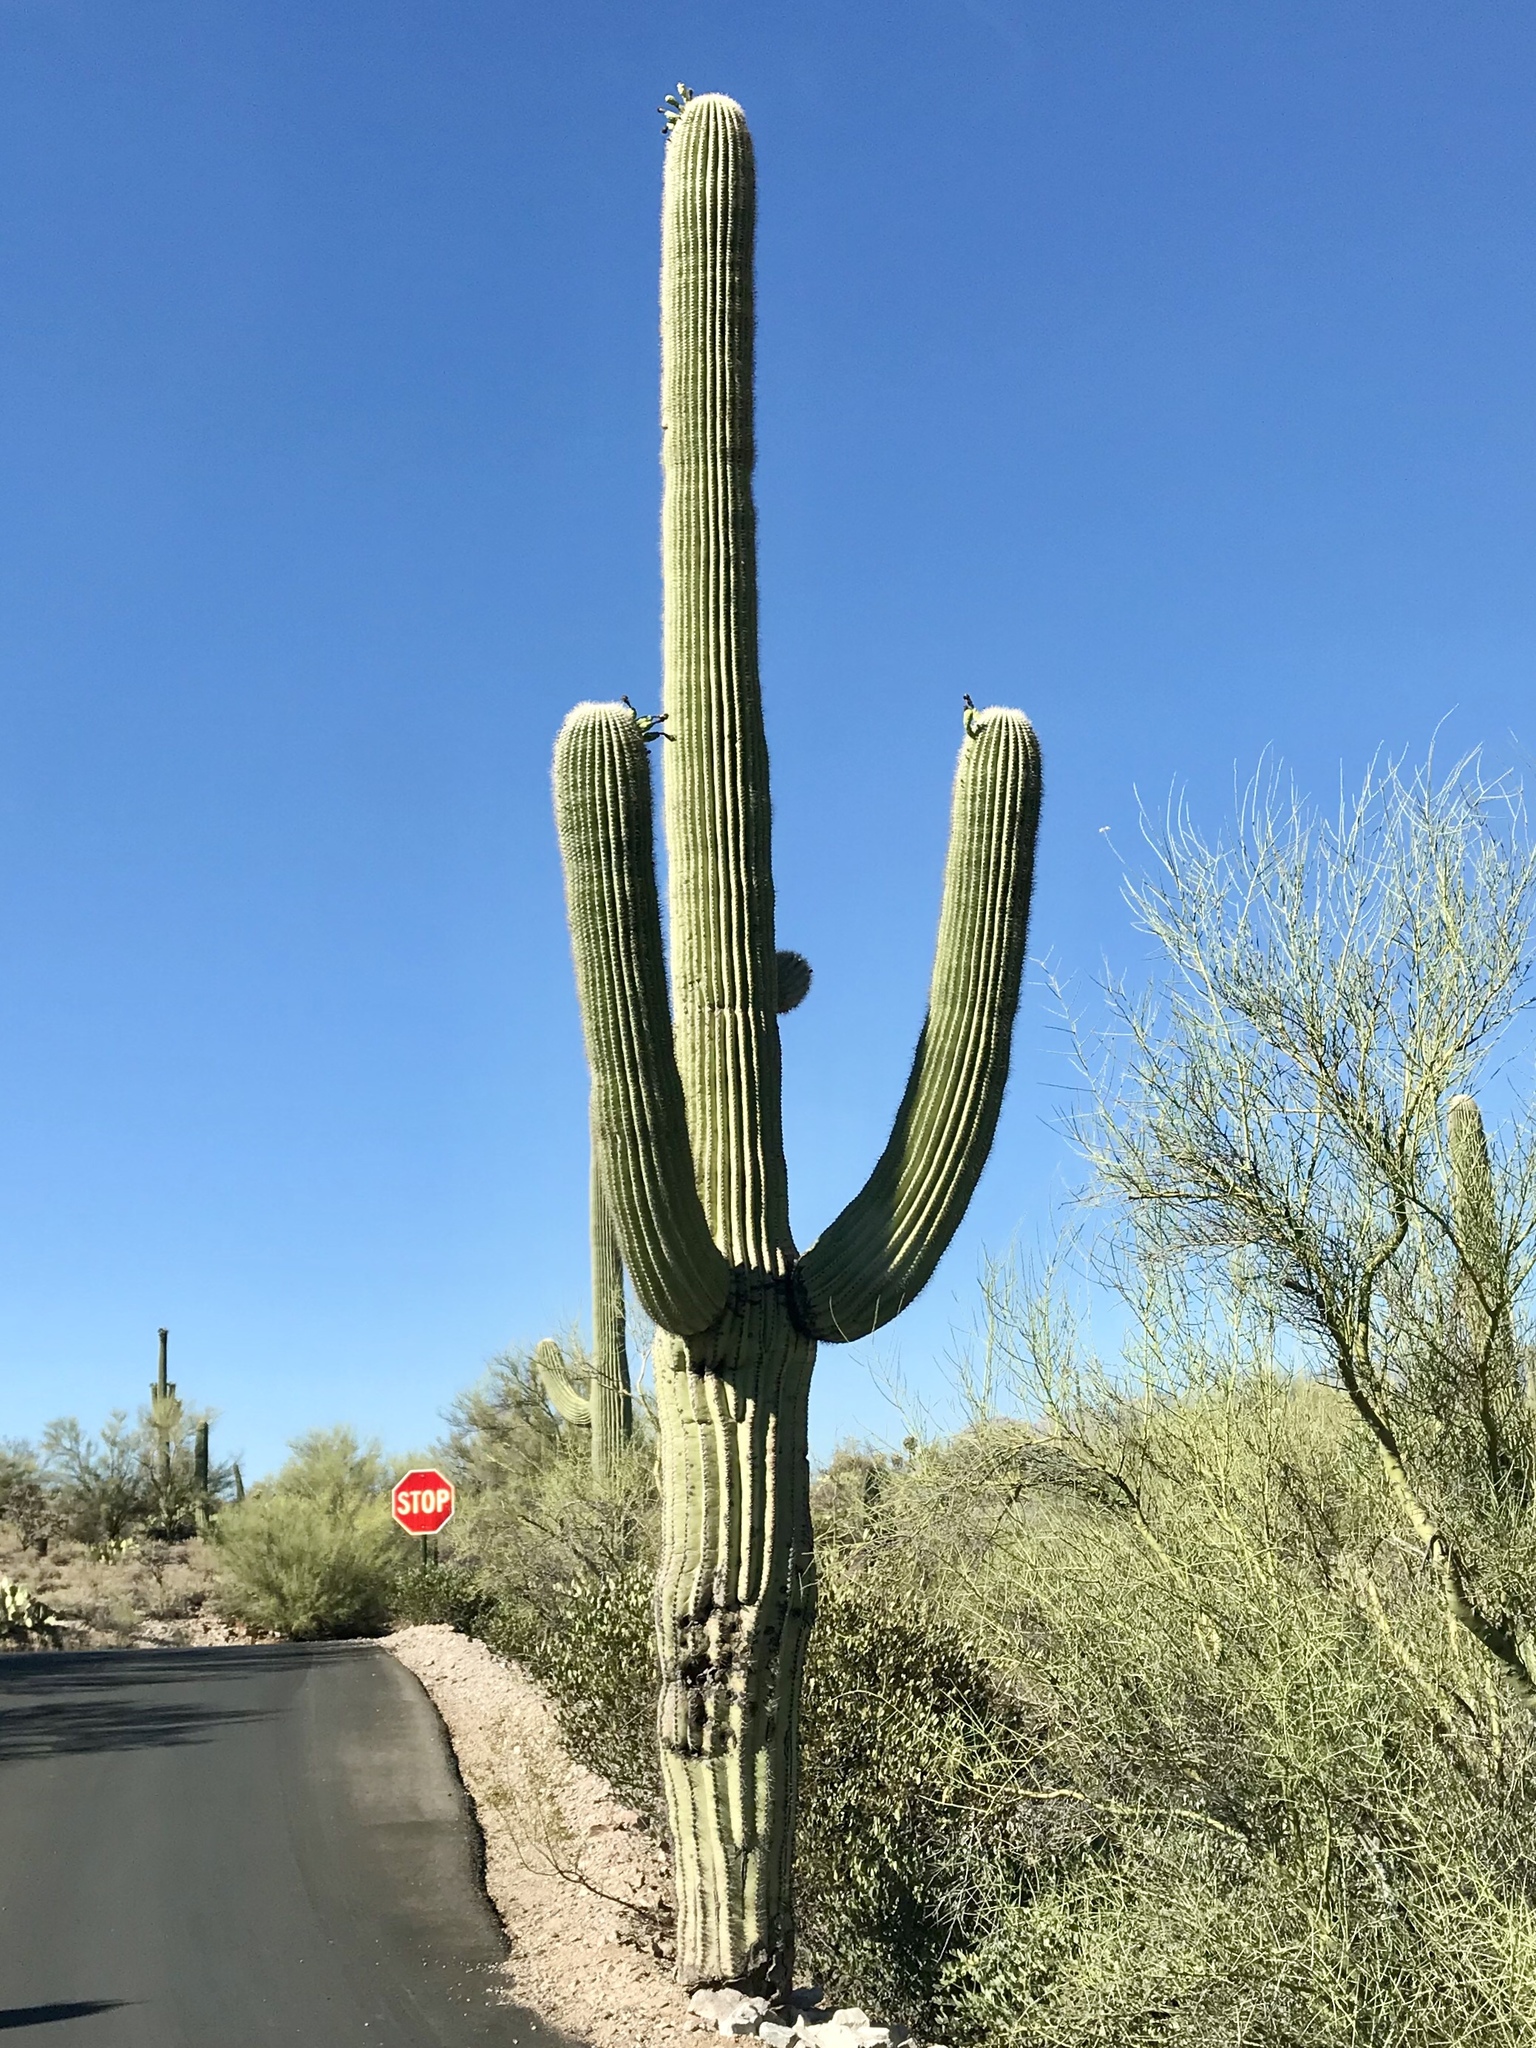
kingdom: Plantae
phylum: Tracheophyta
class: Magnoliopsida
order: Caryophyllales
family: Cactaceae
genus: Carnegiea
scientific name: Carnegiea gigantea
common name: Saguaro
